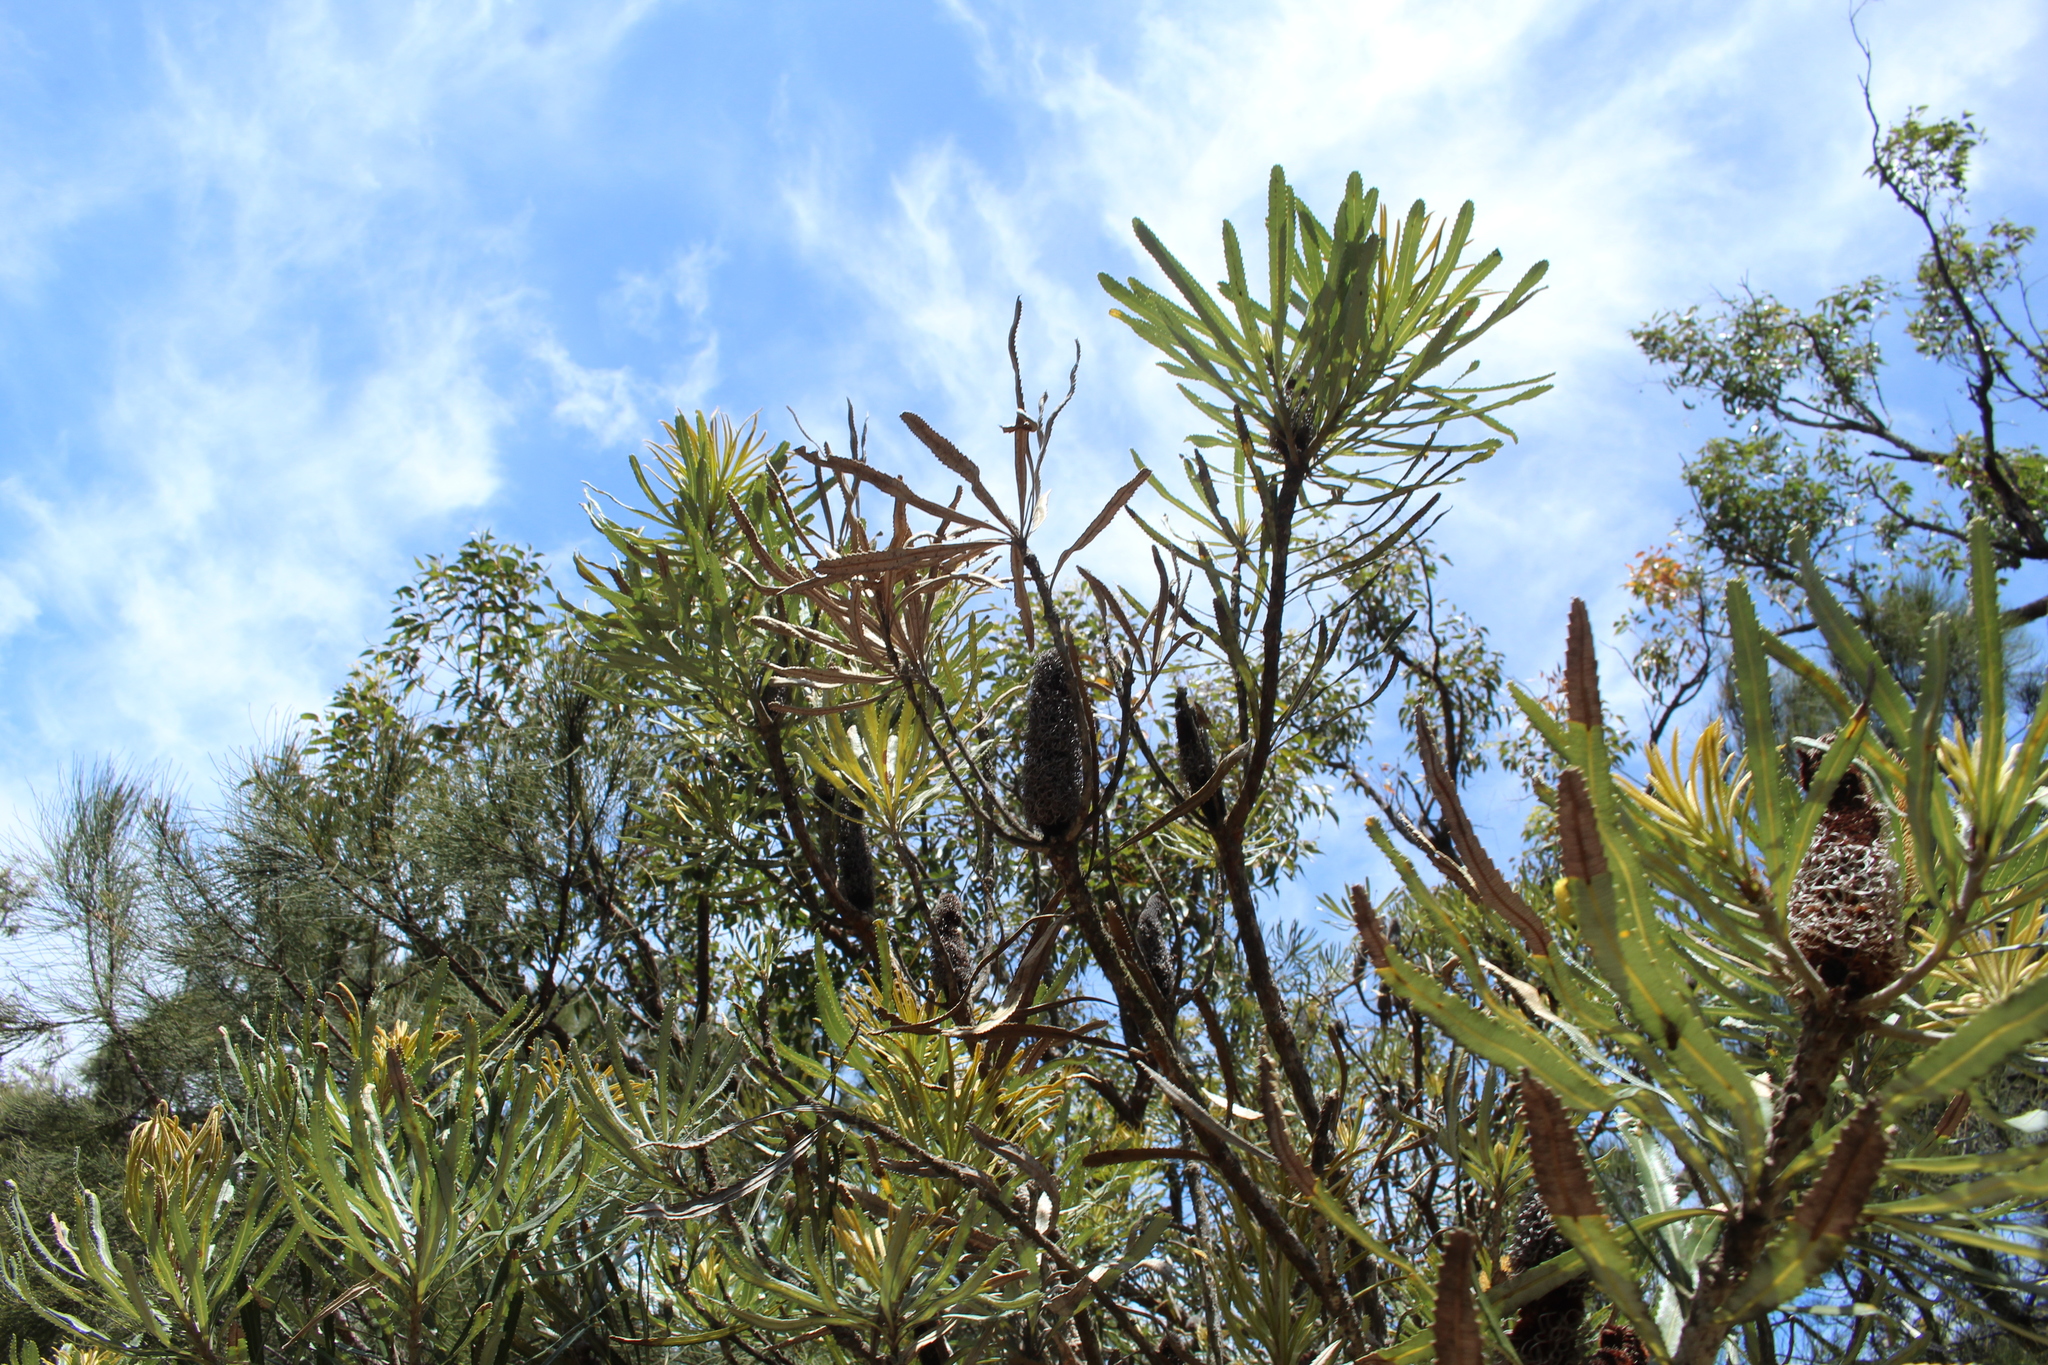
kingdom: Plantae
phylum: Tracheophyta
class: Magnoliopsida
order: Proteales
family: Proteaceae
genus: Banksia
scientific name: Banksia attenuata
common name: Coast banksia
